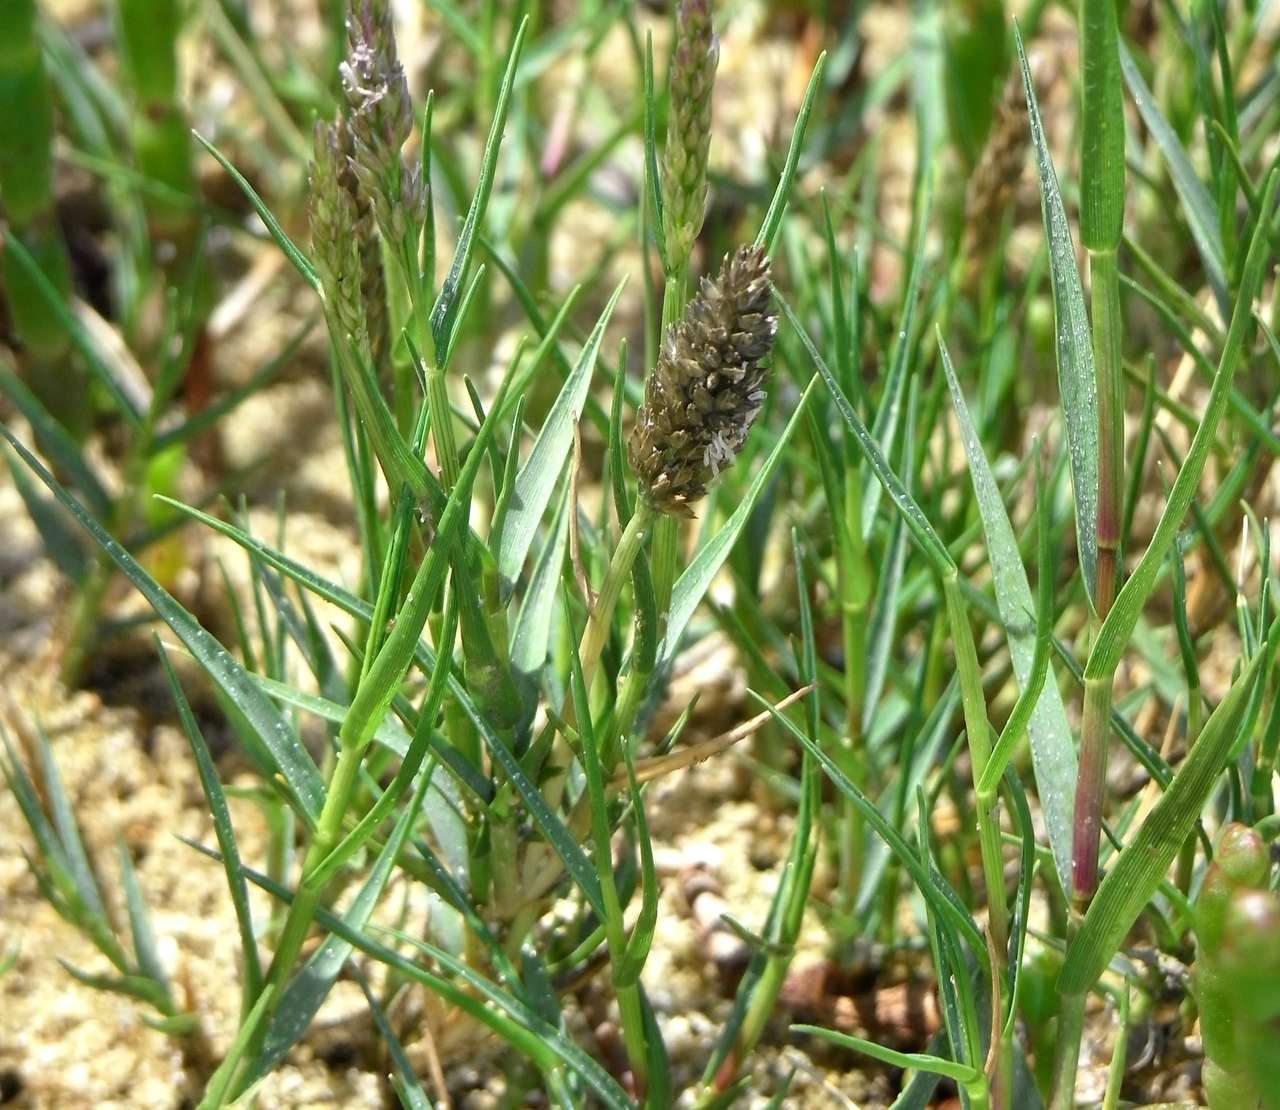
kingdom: Plantae
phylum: Tracheophyta
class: Liliopsida
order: Poales
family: Poaceae
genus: Sporobolus
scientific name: Sporobolus virginicus
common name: Beach dropseed
